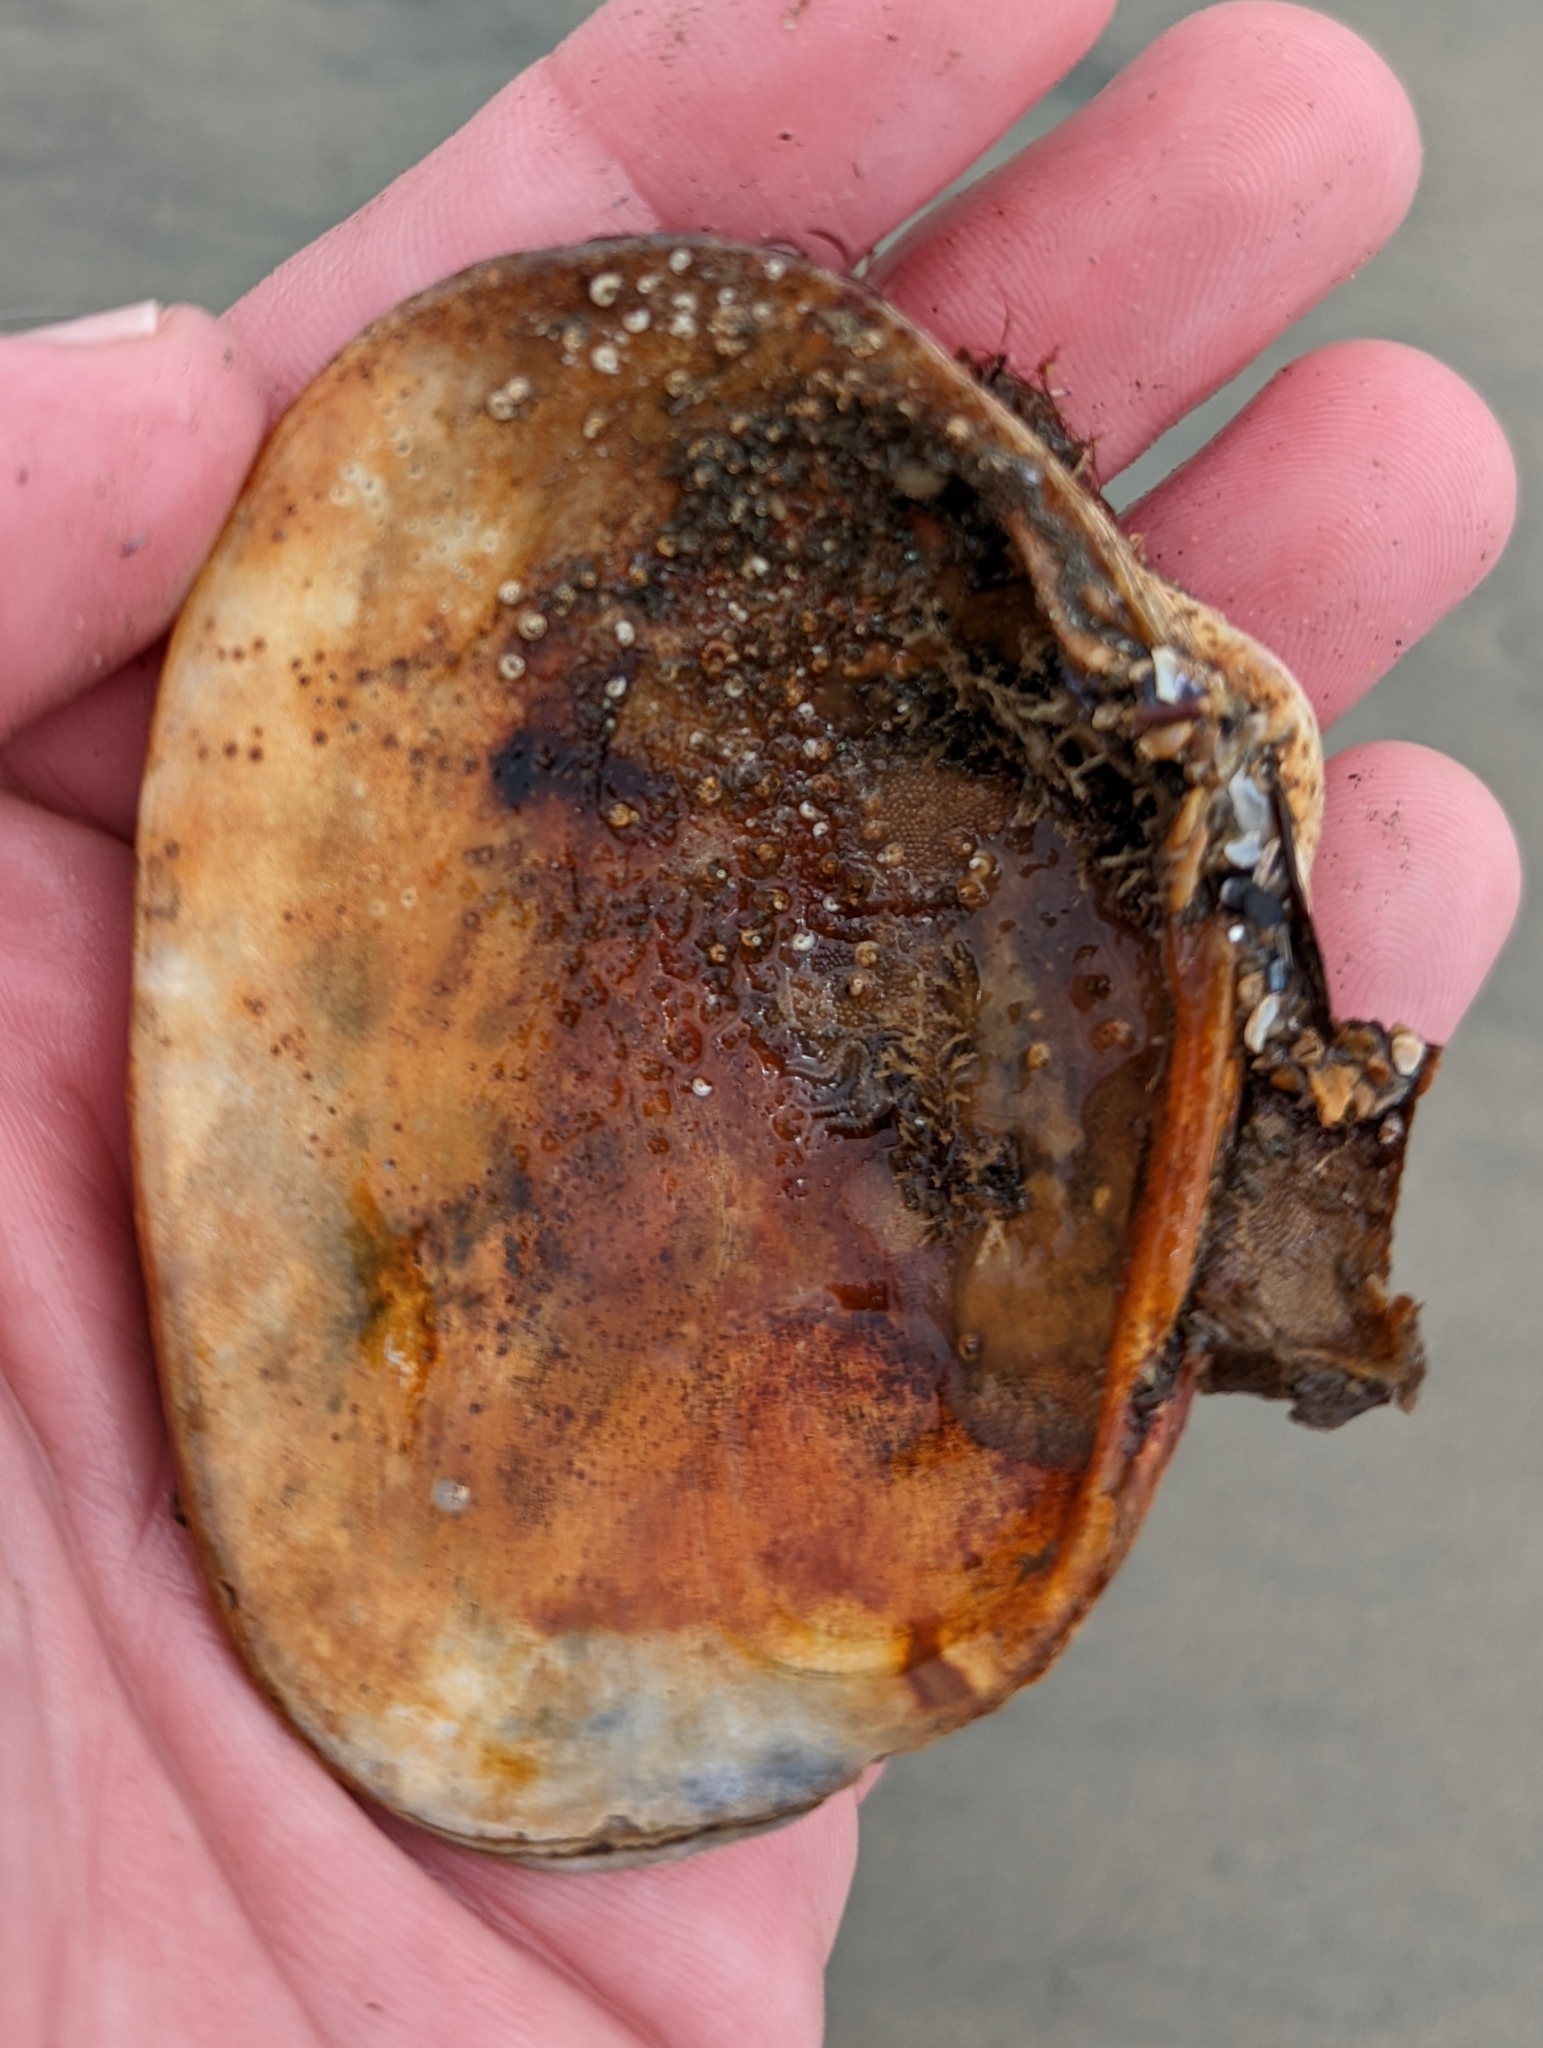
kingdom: Animalia
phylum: Mollusca
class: Bivalvia
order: Venerida
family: Veneridae
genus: Saxidomus
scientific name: Saxidomus nuttalli
